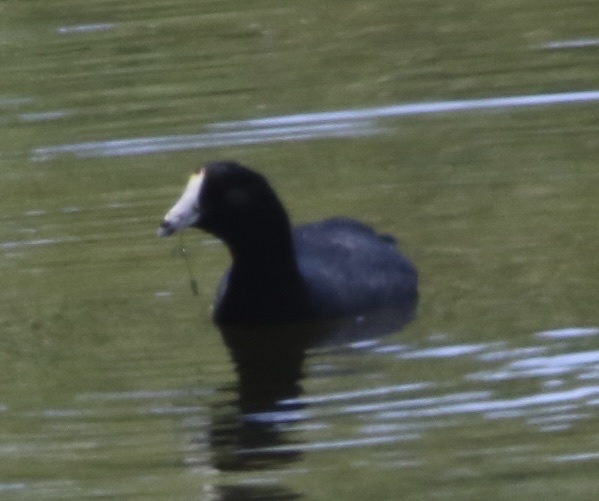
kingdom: Animalia
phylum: Chordata
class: Aves
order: Gruiformes
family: Rallidae
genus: Fulica
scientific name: Fulica americana
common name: American coot
